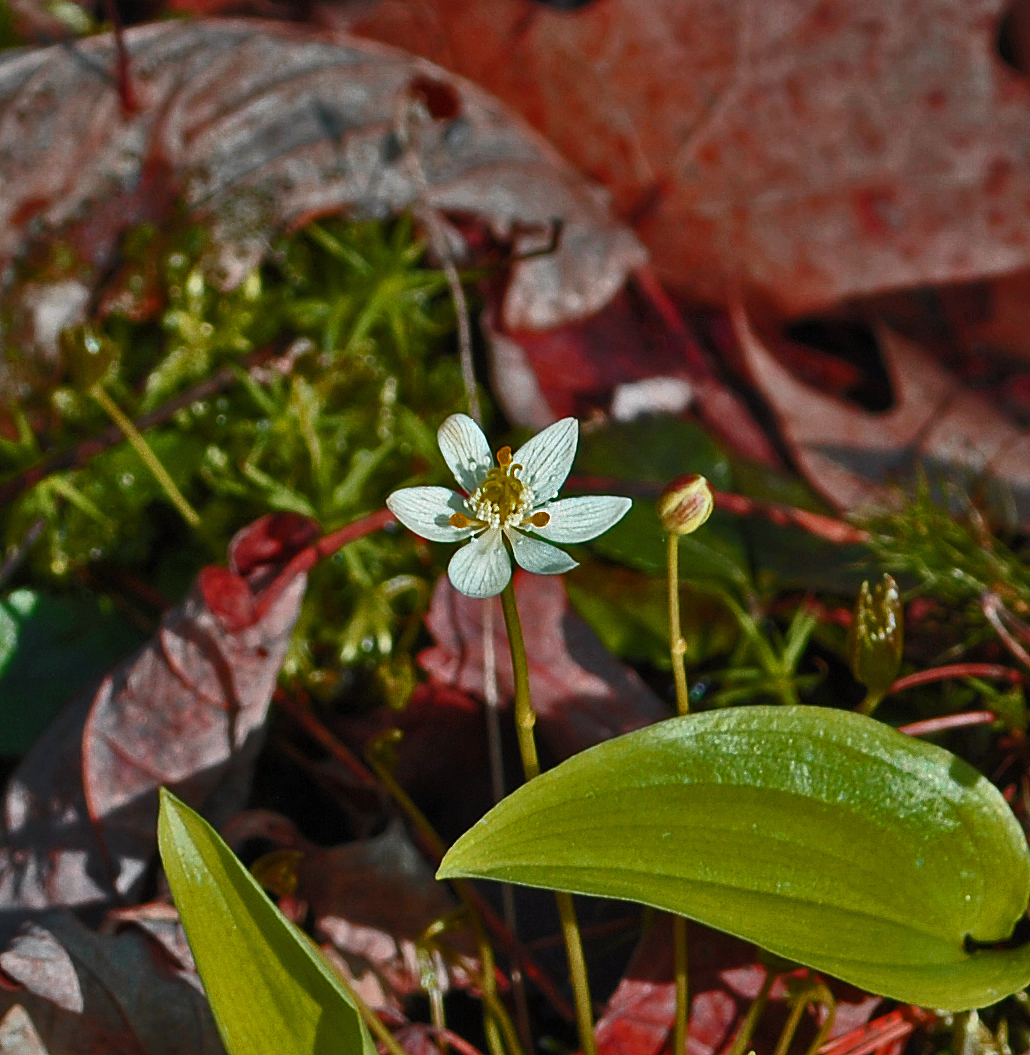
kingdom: Plantae
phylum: Tracheophyta
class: Magnoliopsida
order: Ranunculales
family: Ranunculaceae
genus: Coptis
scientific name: Coptis trifolia
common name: Canker-root
